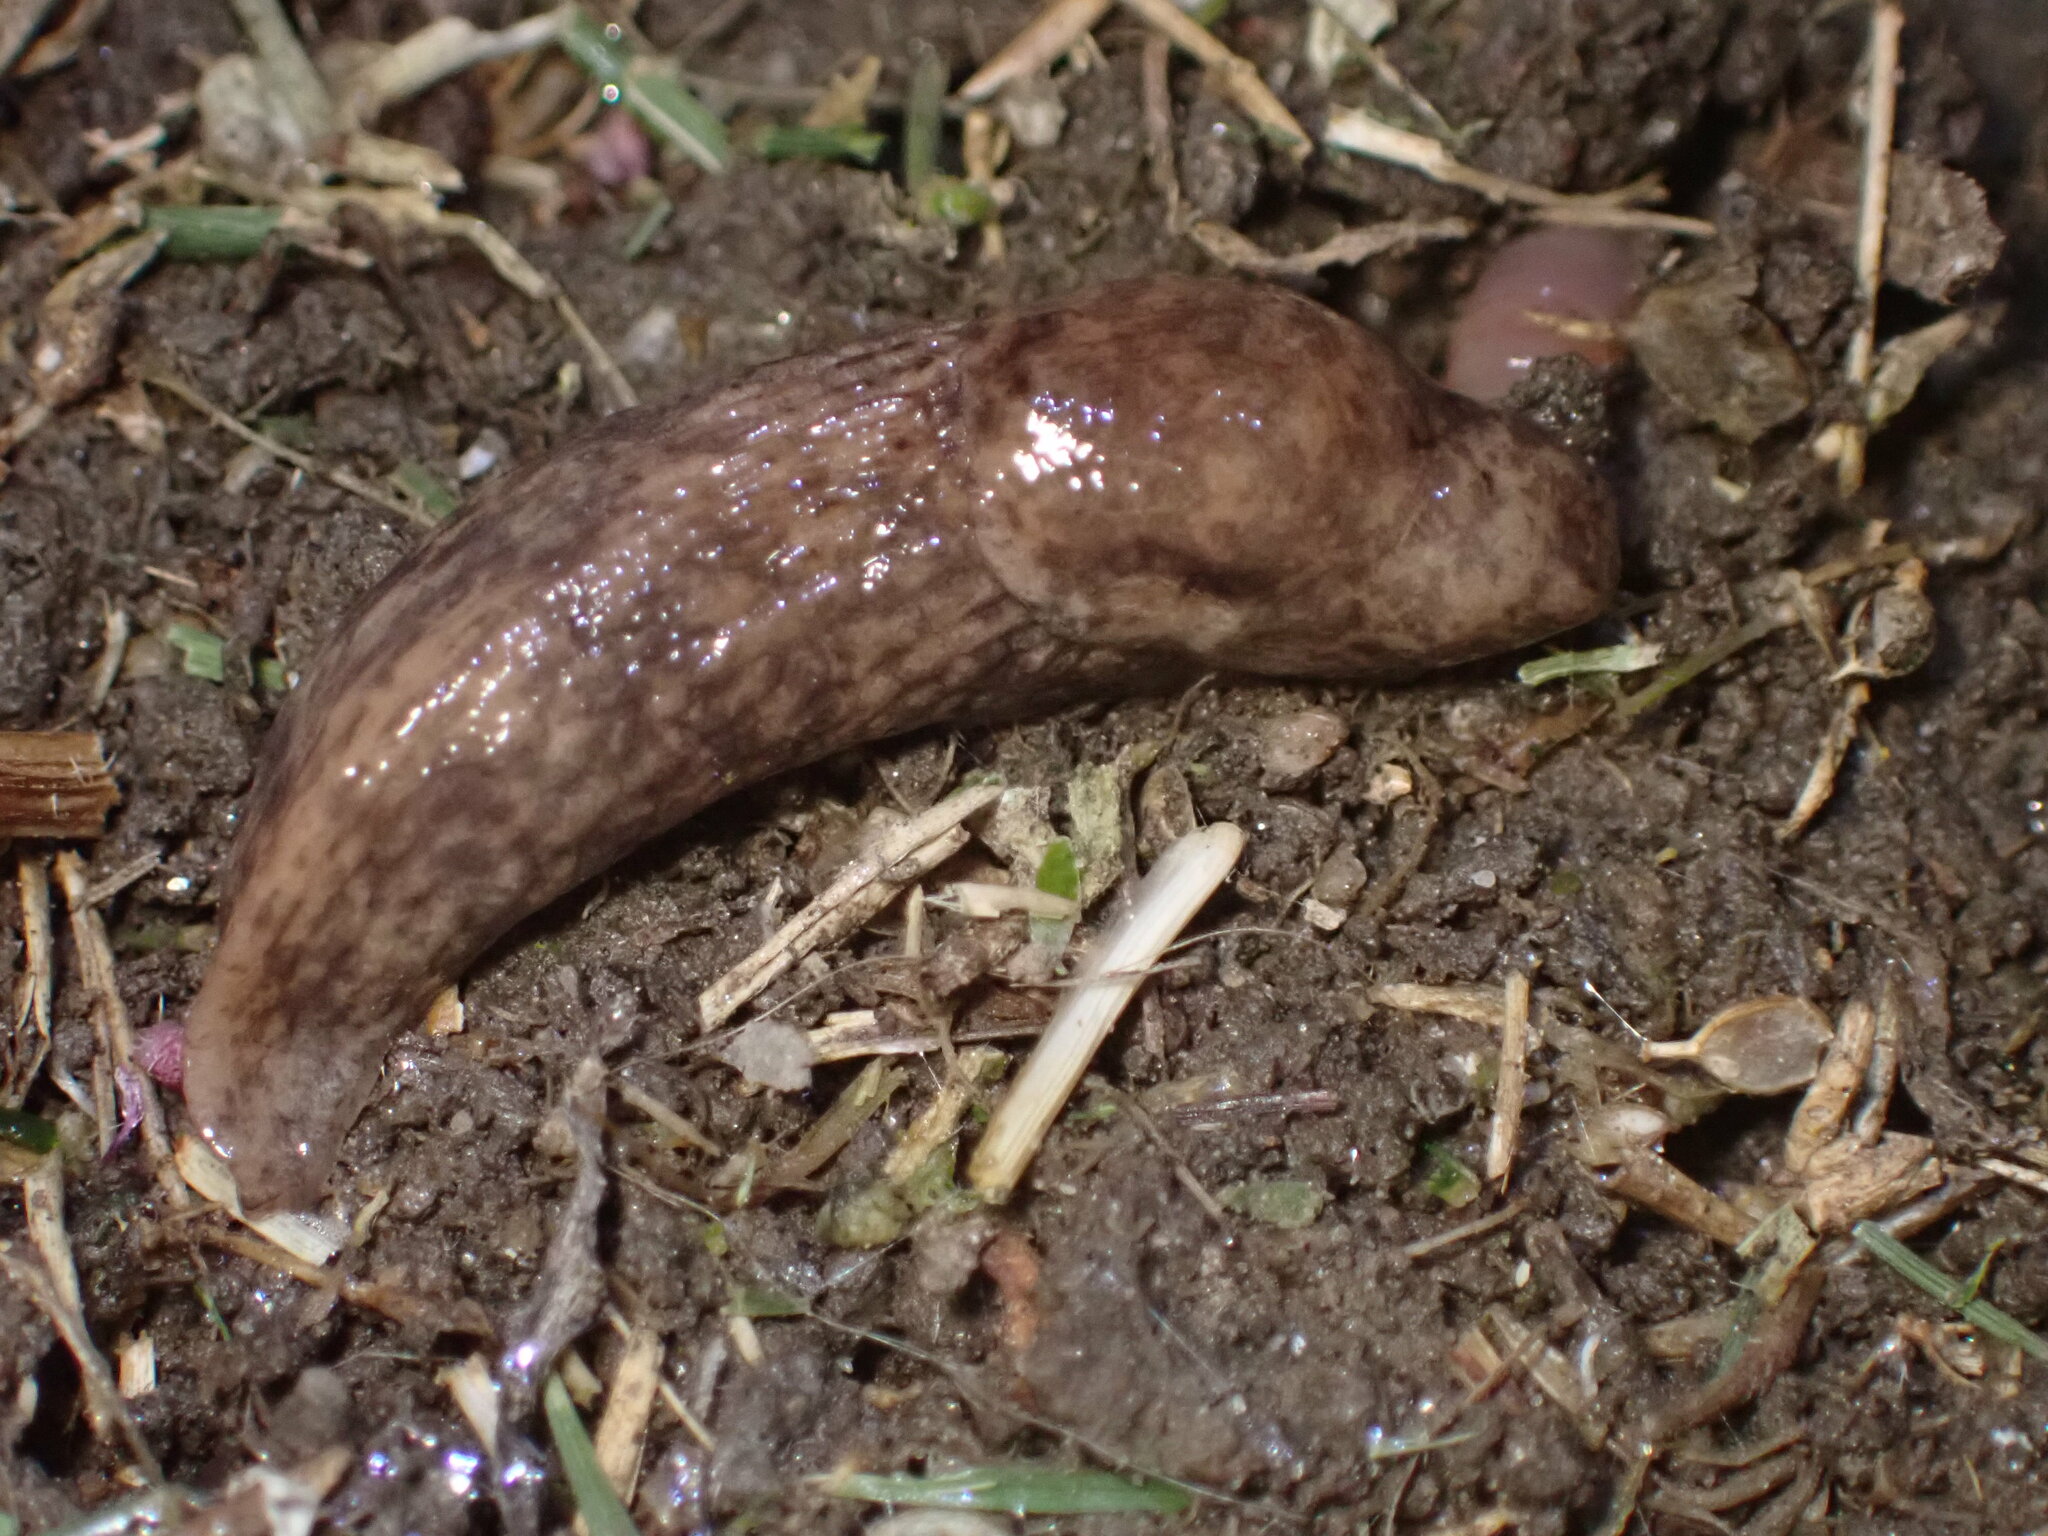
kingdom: Animalia
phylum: Mollusca
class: Gastropoda
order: Stylommatophora
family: Agriolimacidae
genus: Deroceras
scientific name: Deroceras reticulatum
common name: Gray field slug
